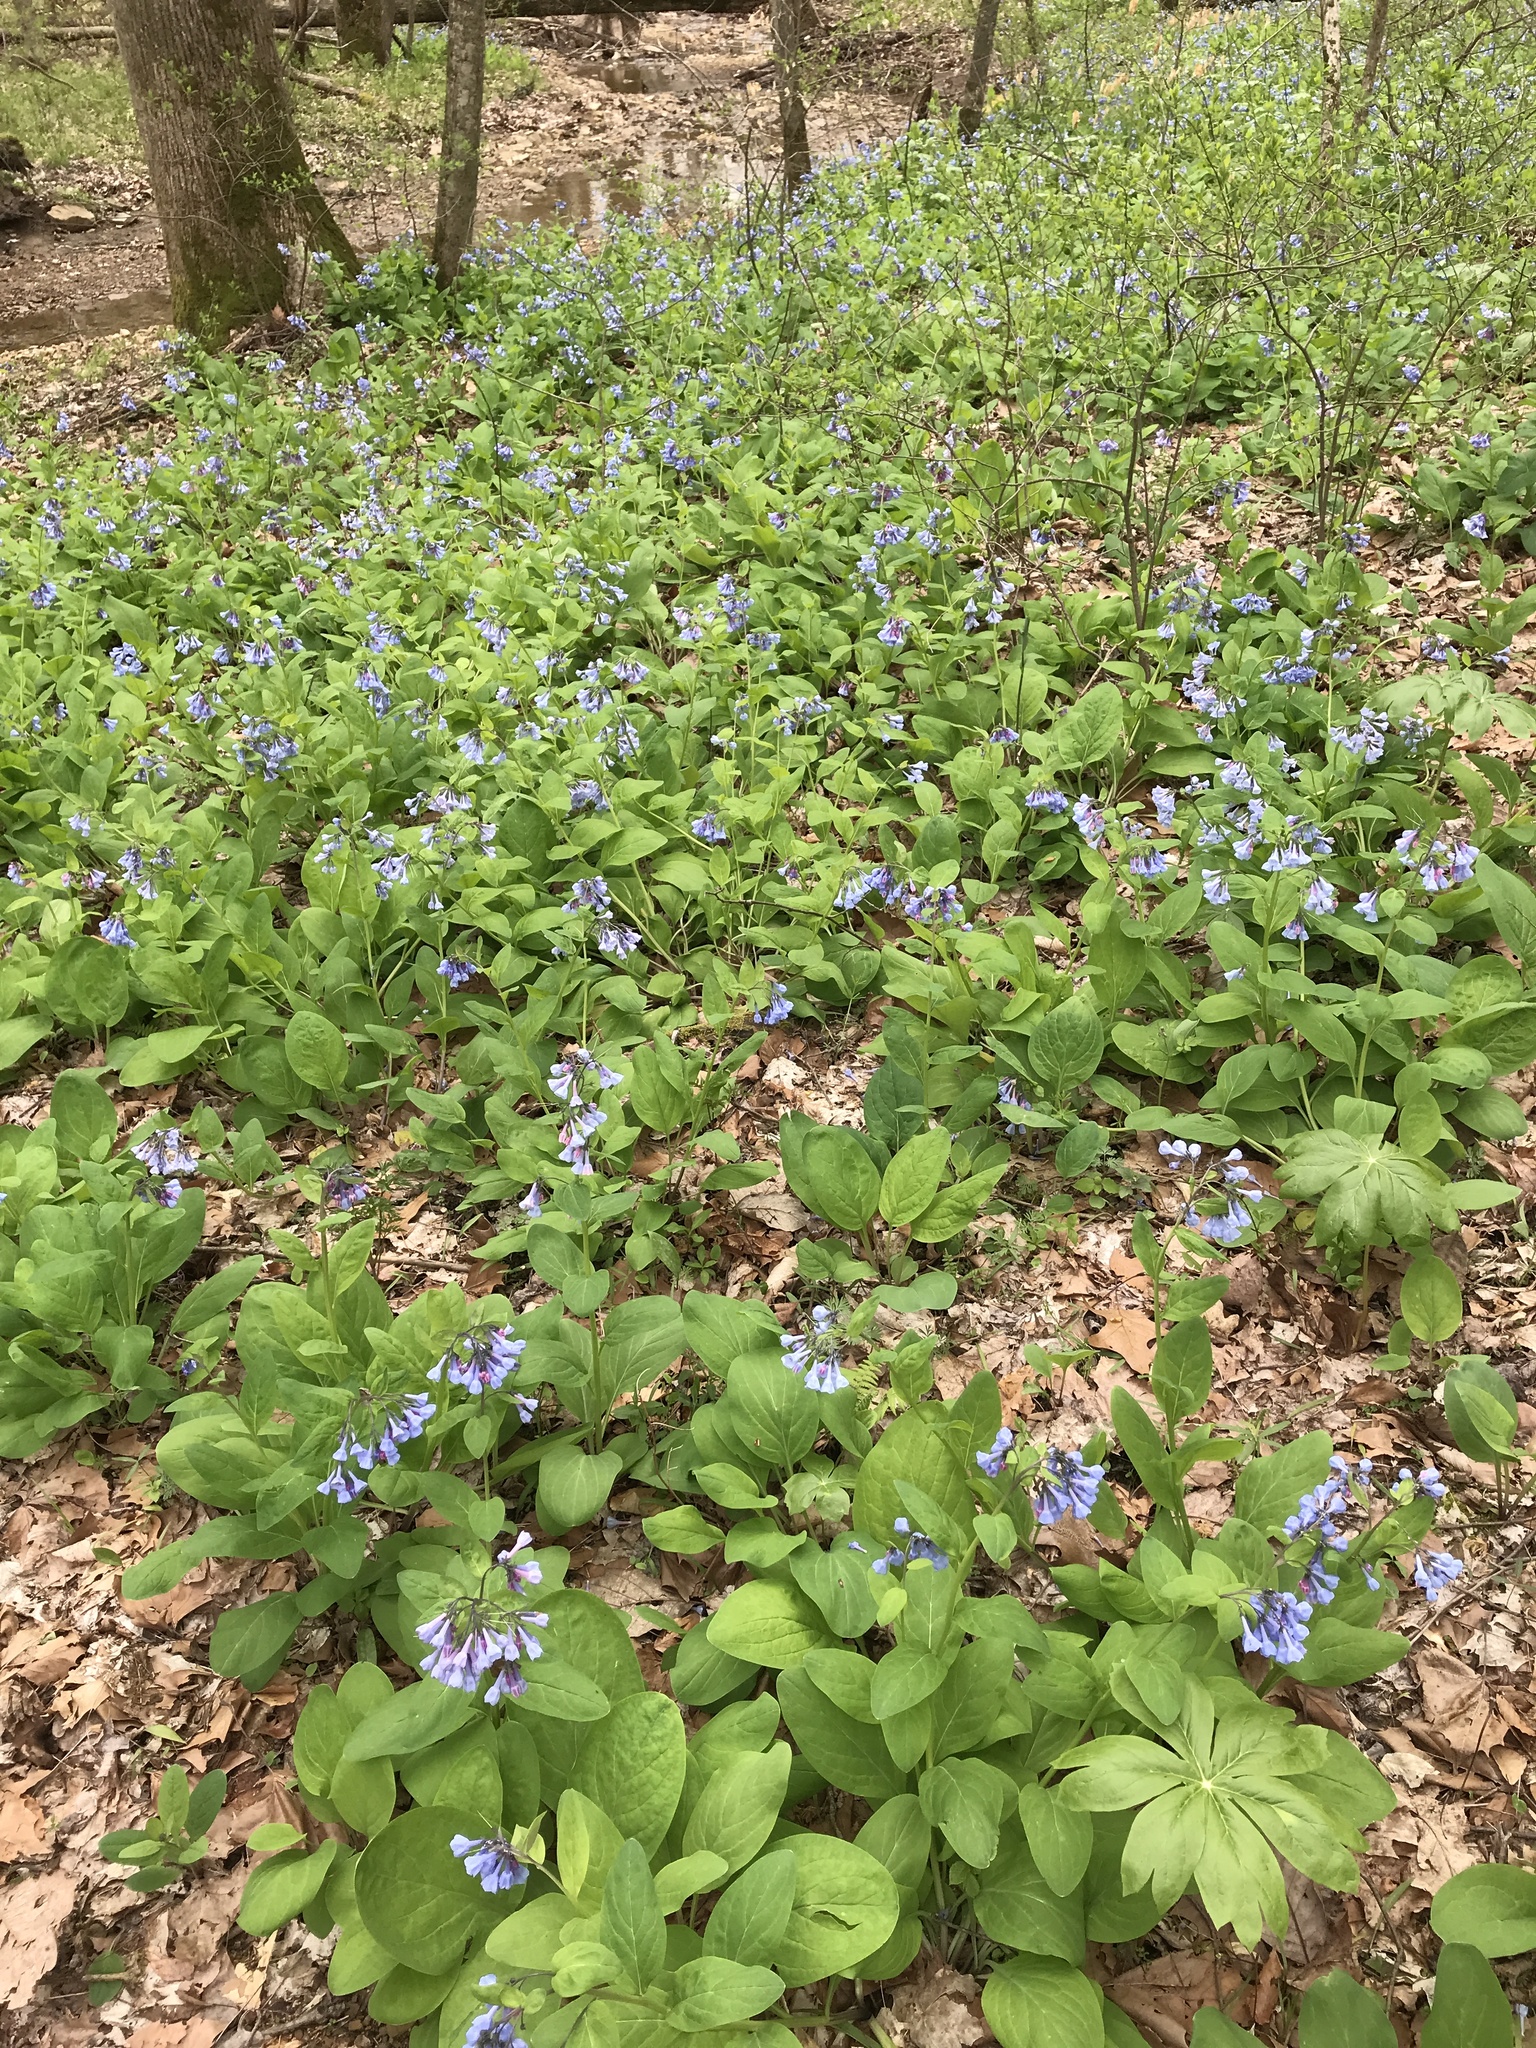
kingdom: Plantae
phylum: Tracheophyta
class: Magnoliopsida
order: Boraginales
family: Boraginaceae
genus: Mertensia
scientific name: Mertensia virginica
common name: Virginia bluebells
